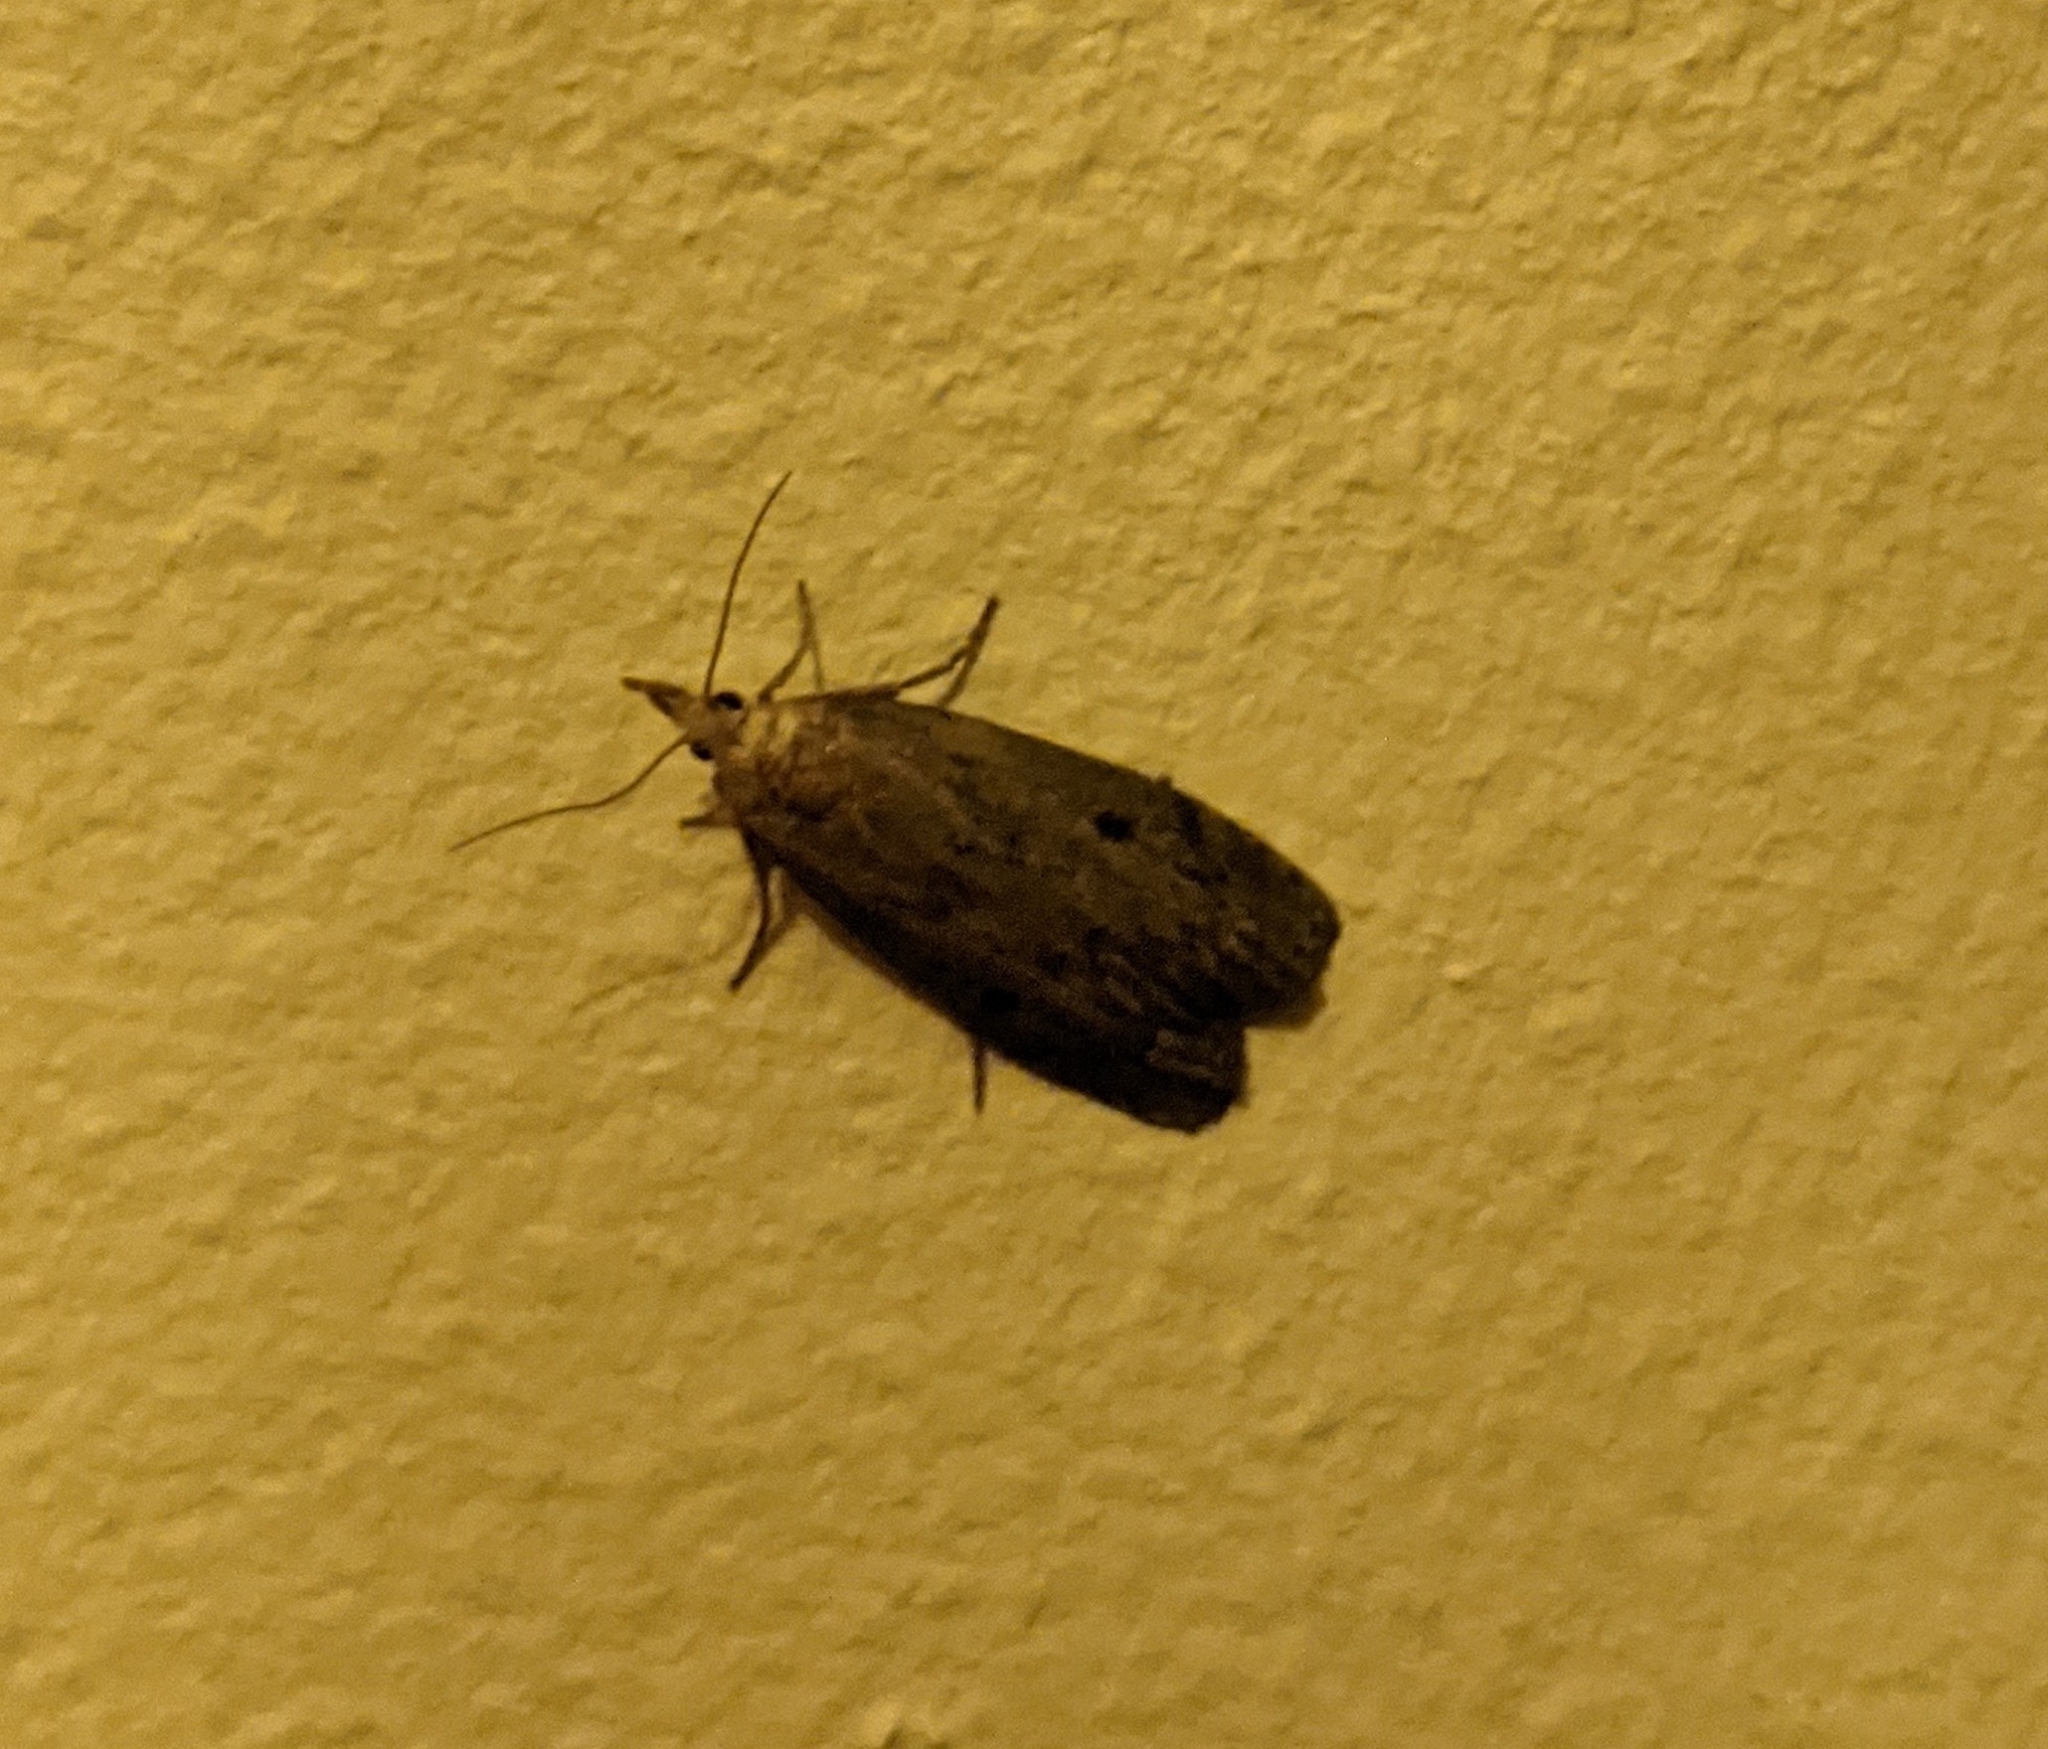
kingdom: Animalia
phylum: Arthropoda
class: Insecta
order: Lepidoptera
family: Pyralidae
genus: Aphomia
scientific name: Aphomia sociella
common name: Bee moth
